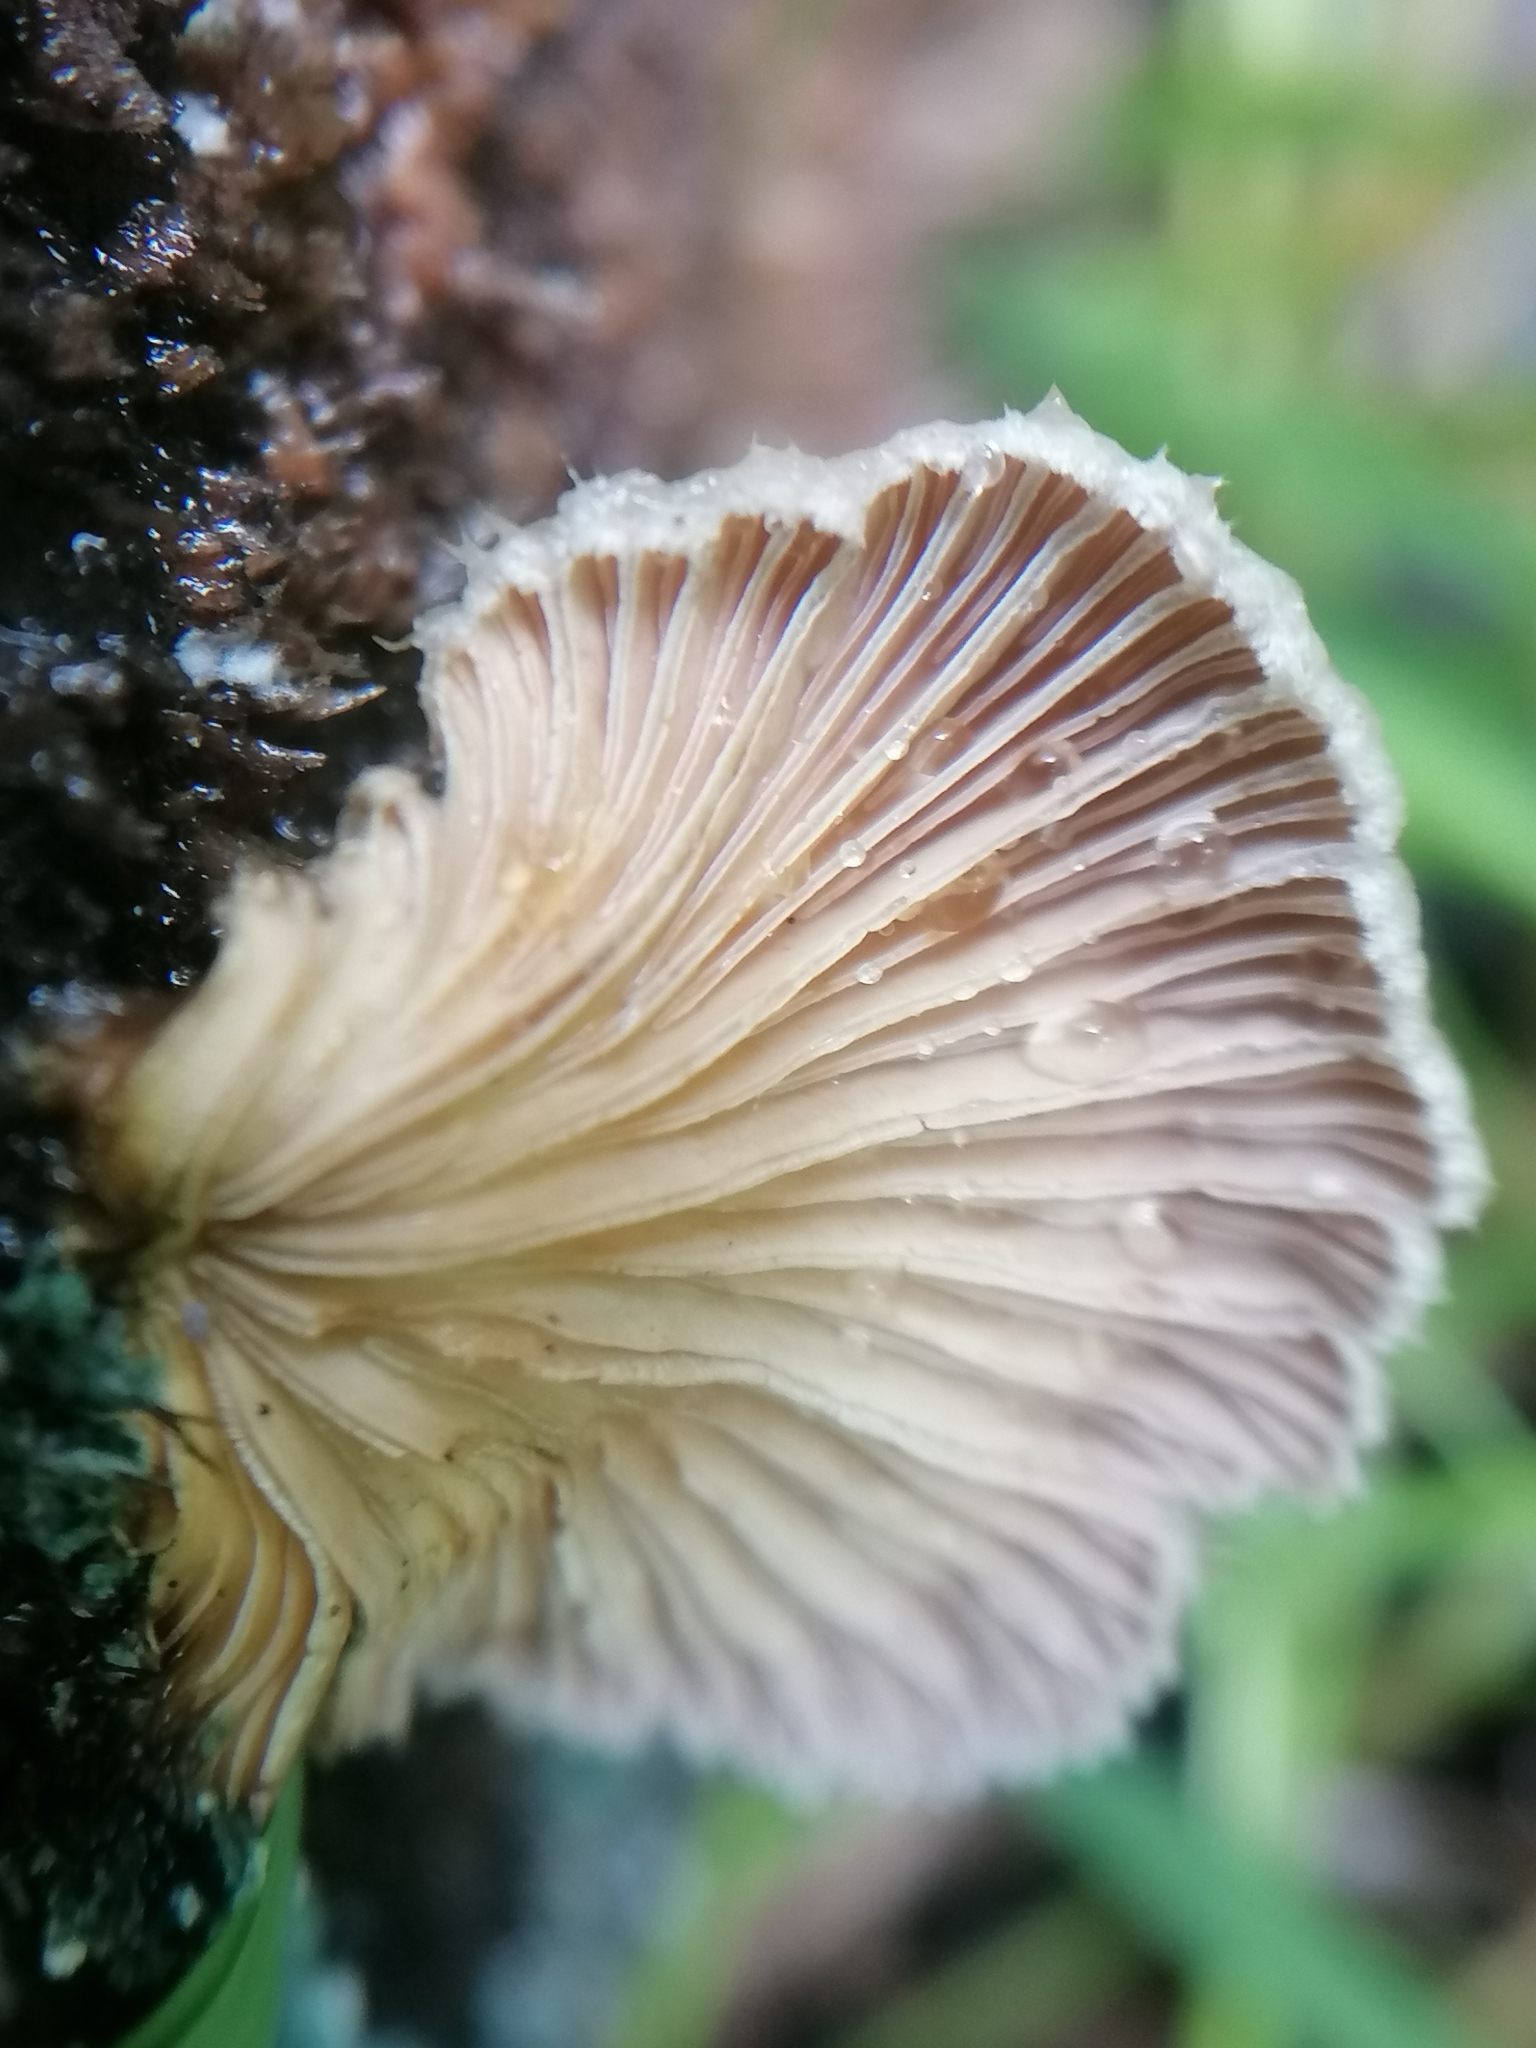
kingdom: Fungi
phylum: Basidiomycota
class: Agaricomycetes
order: Agaricales
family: Schizophyllaceae
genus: Schizophyllum
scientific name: Schizophyllum commune
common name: Common porecrust
